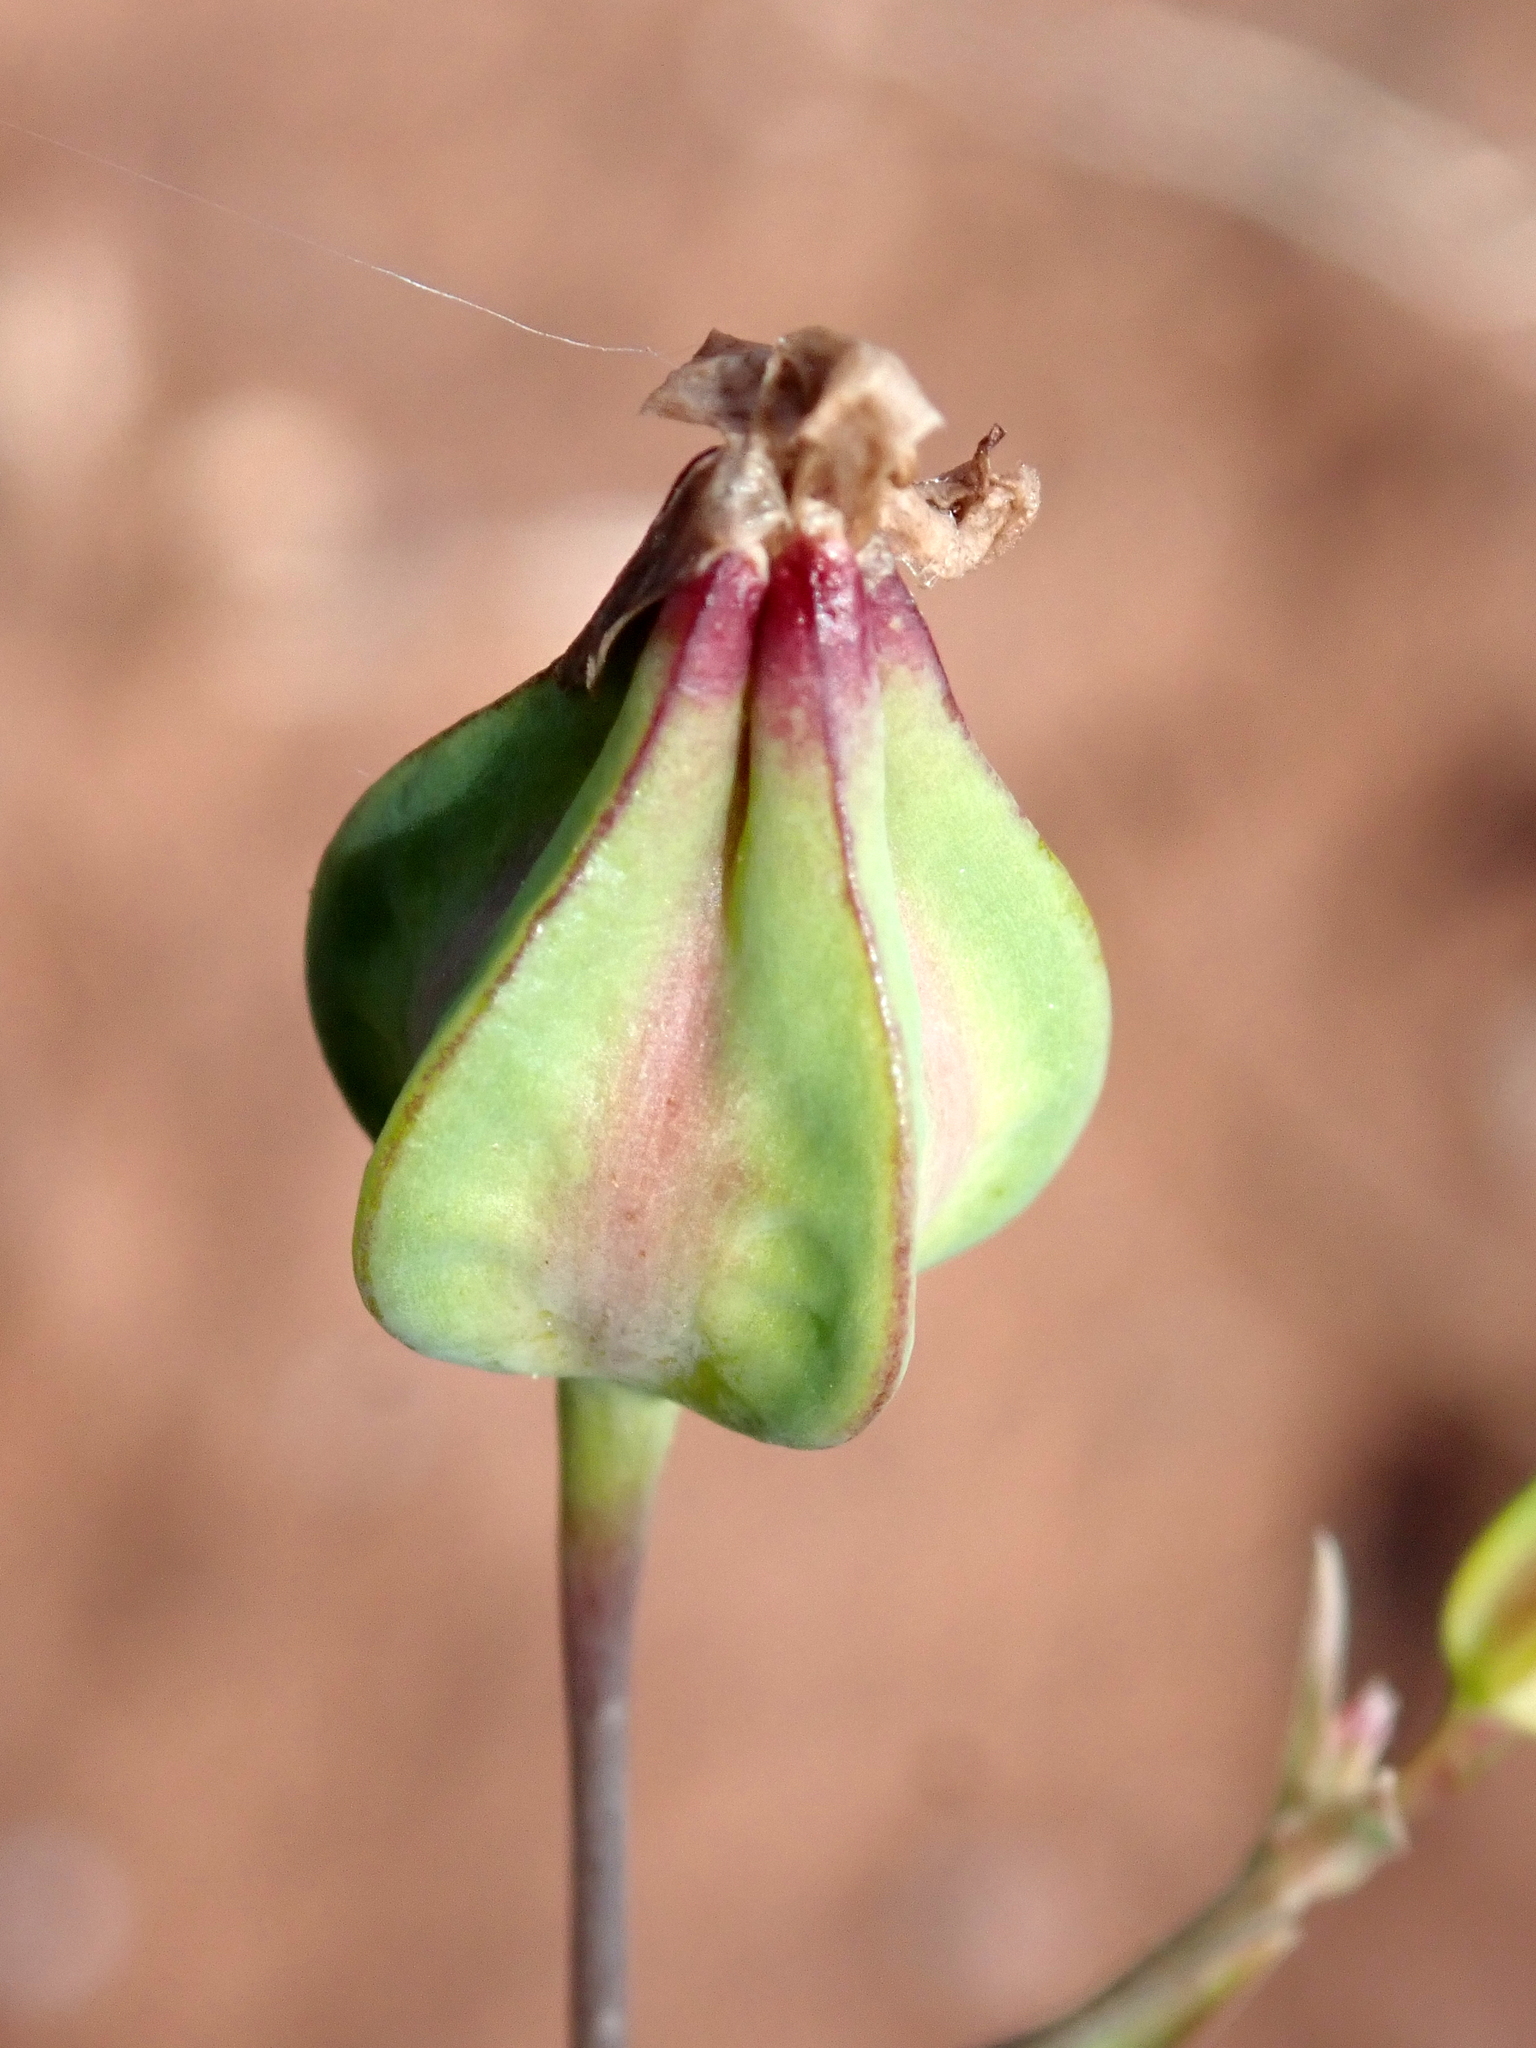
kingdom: Plantae
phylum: Tracheophyta
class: Magnoliopsida
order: Caryophyllales
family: Caryophyllaceae
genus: Gypsophila
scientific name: Gypsophila vaccaria
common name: Cow soapwort
